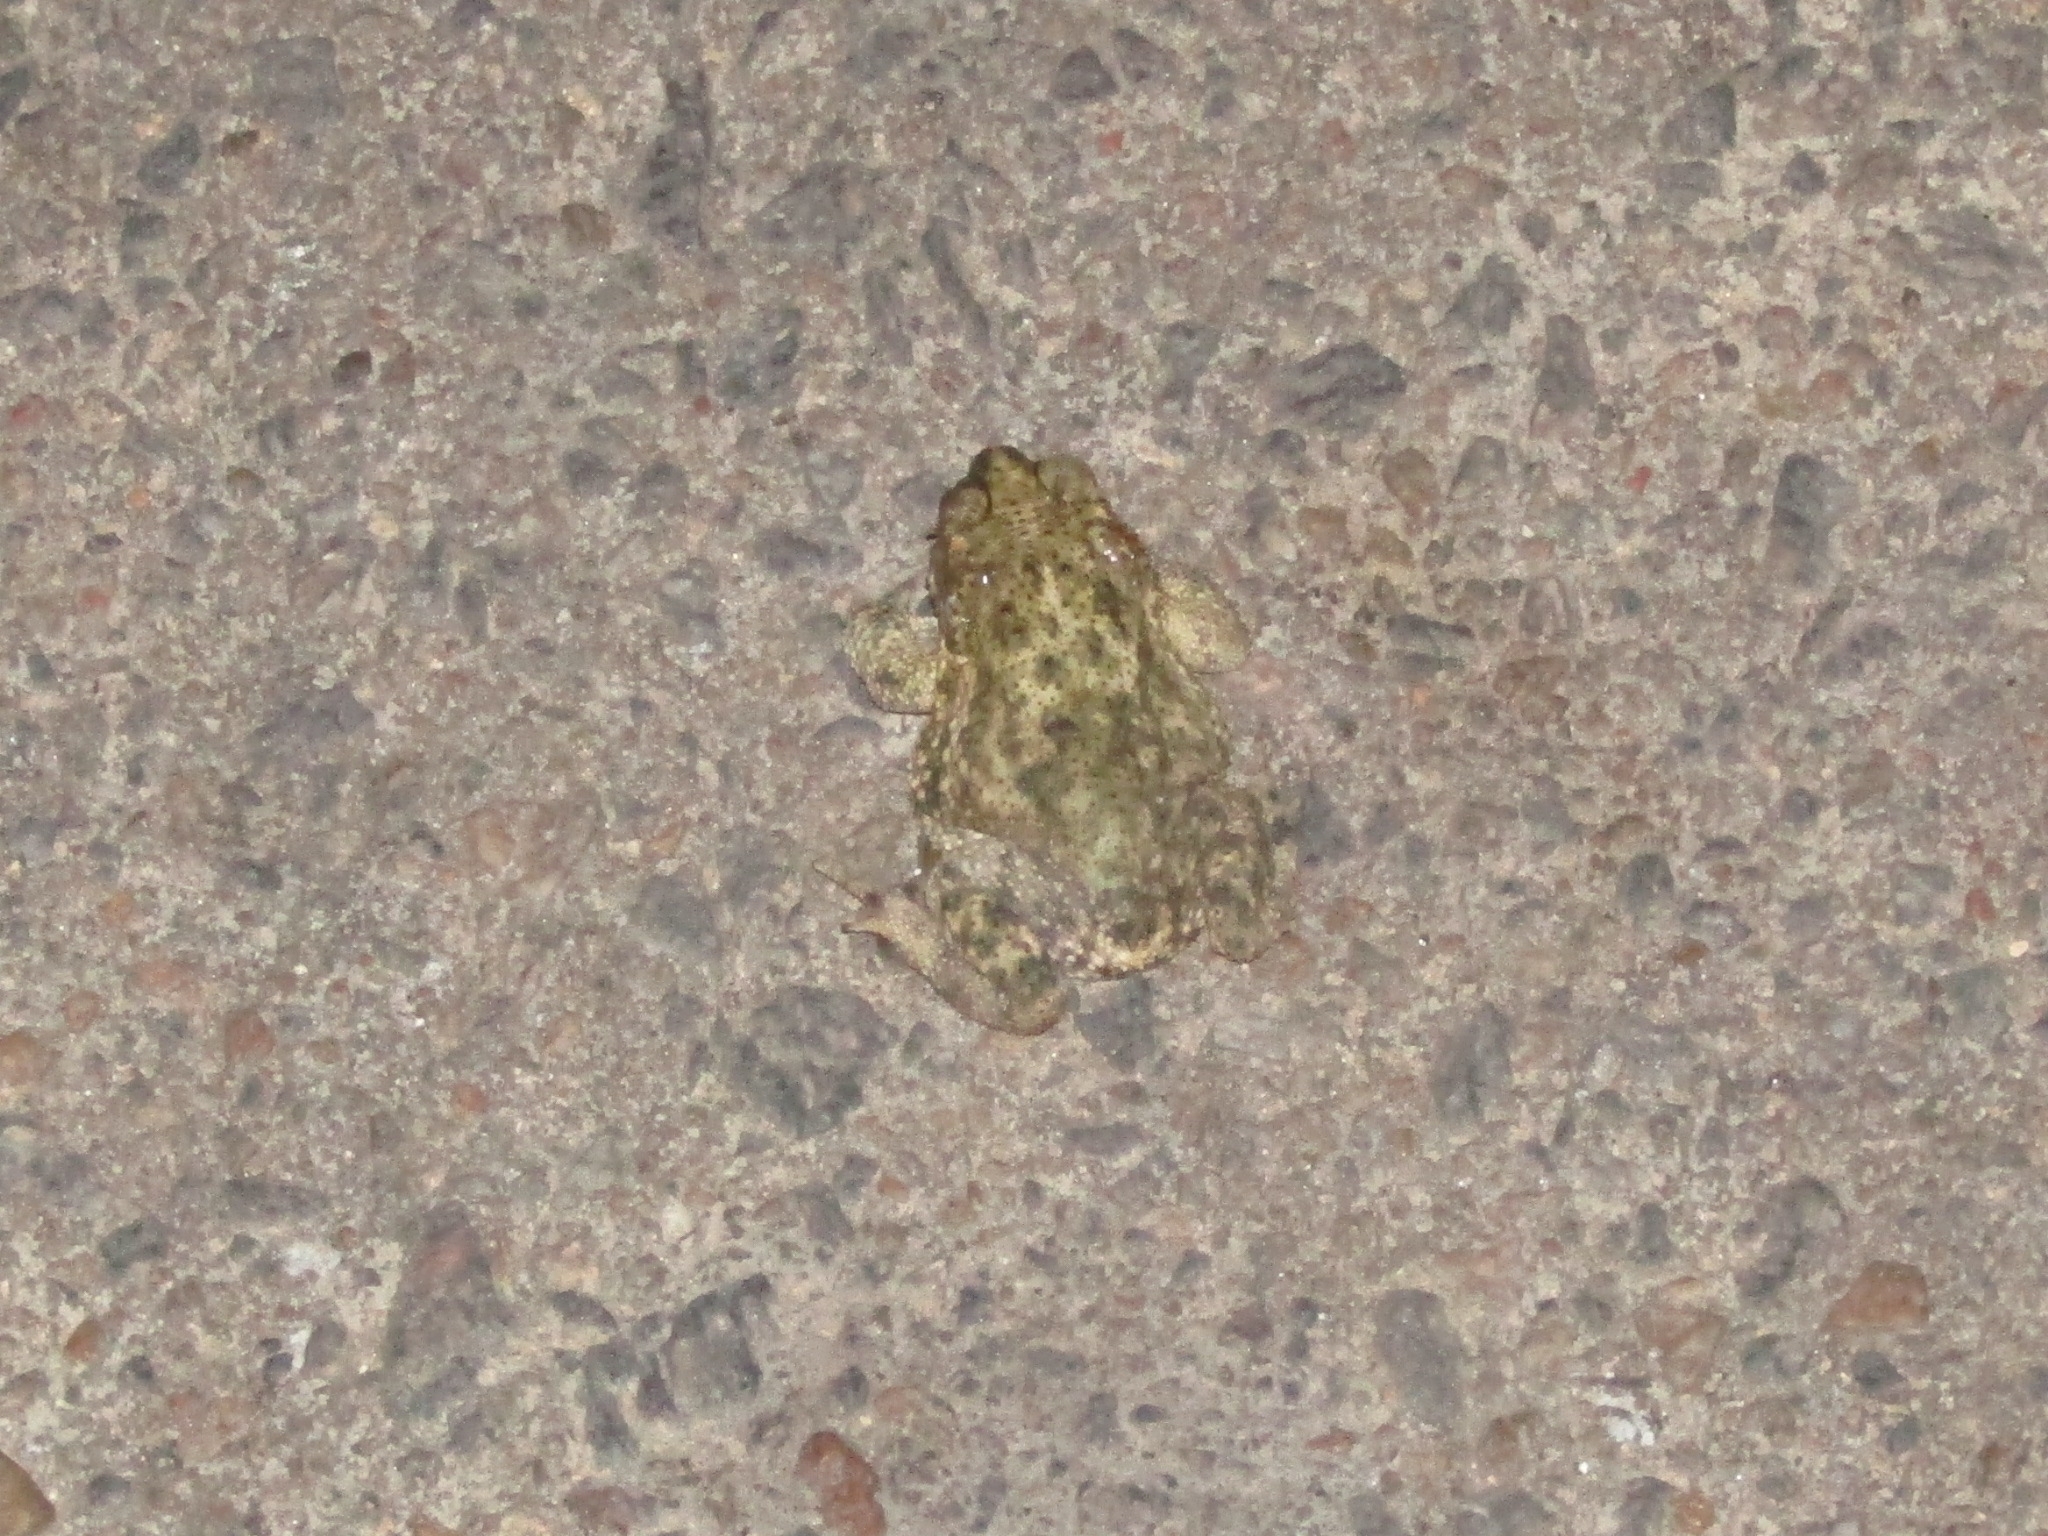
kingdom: Animalia
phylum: Chordata
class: Amphibia
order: Anura
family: Bufonidae
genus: Rhinella
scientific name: Rhinella granulosa
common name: Common lesser toad
